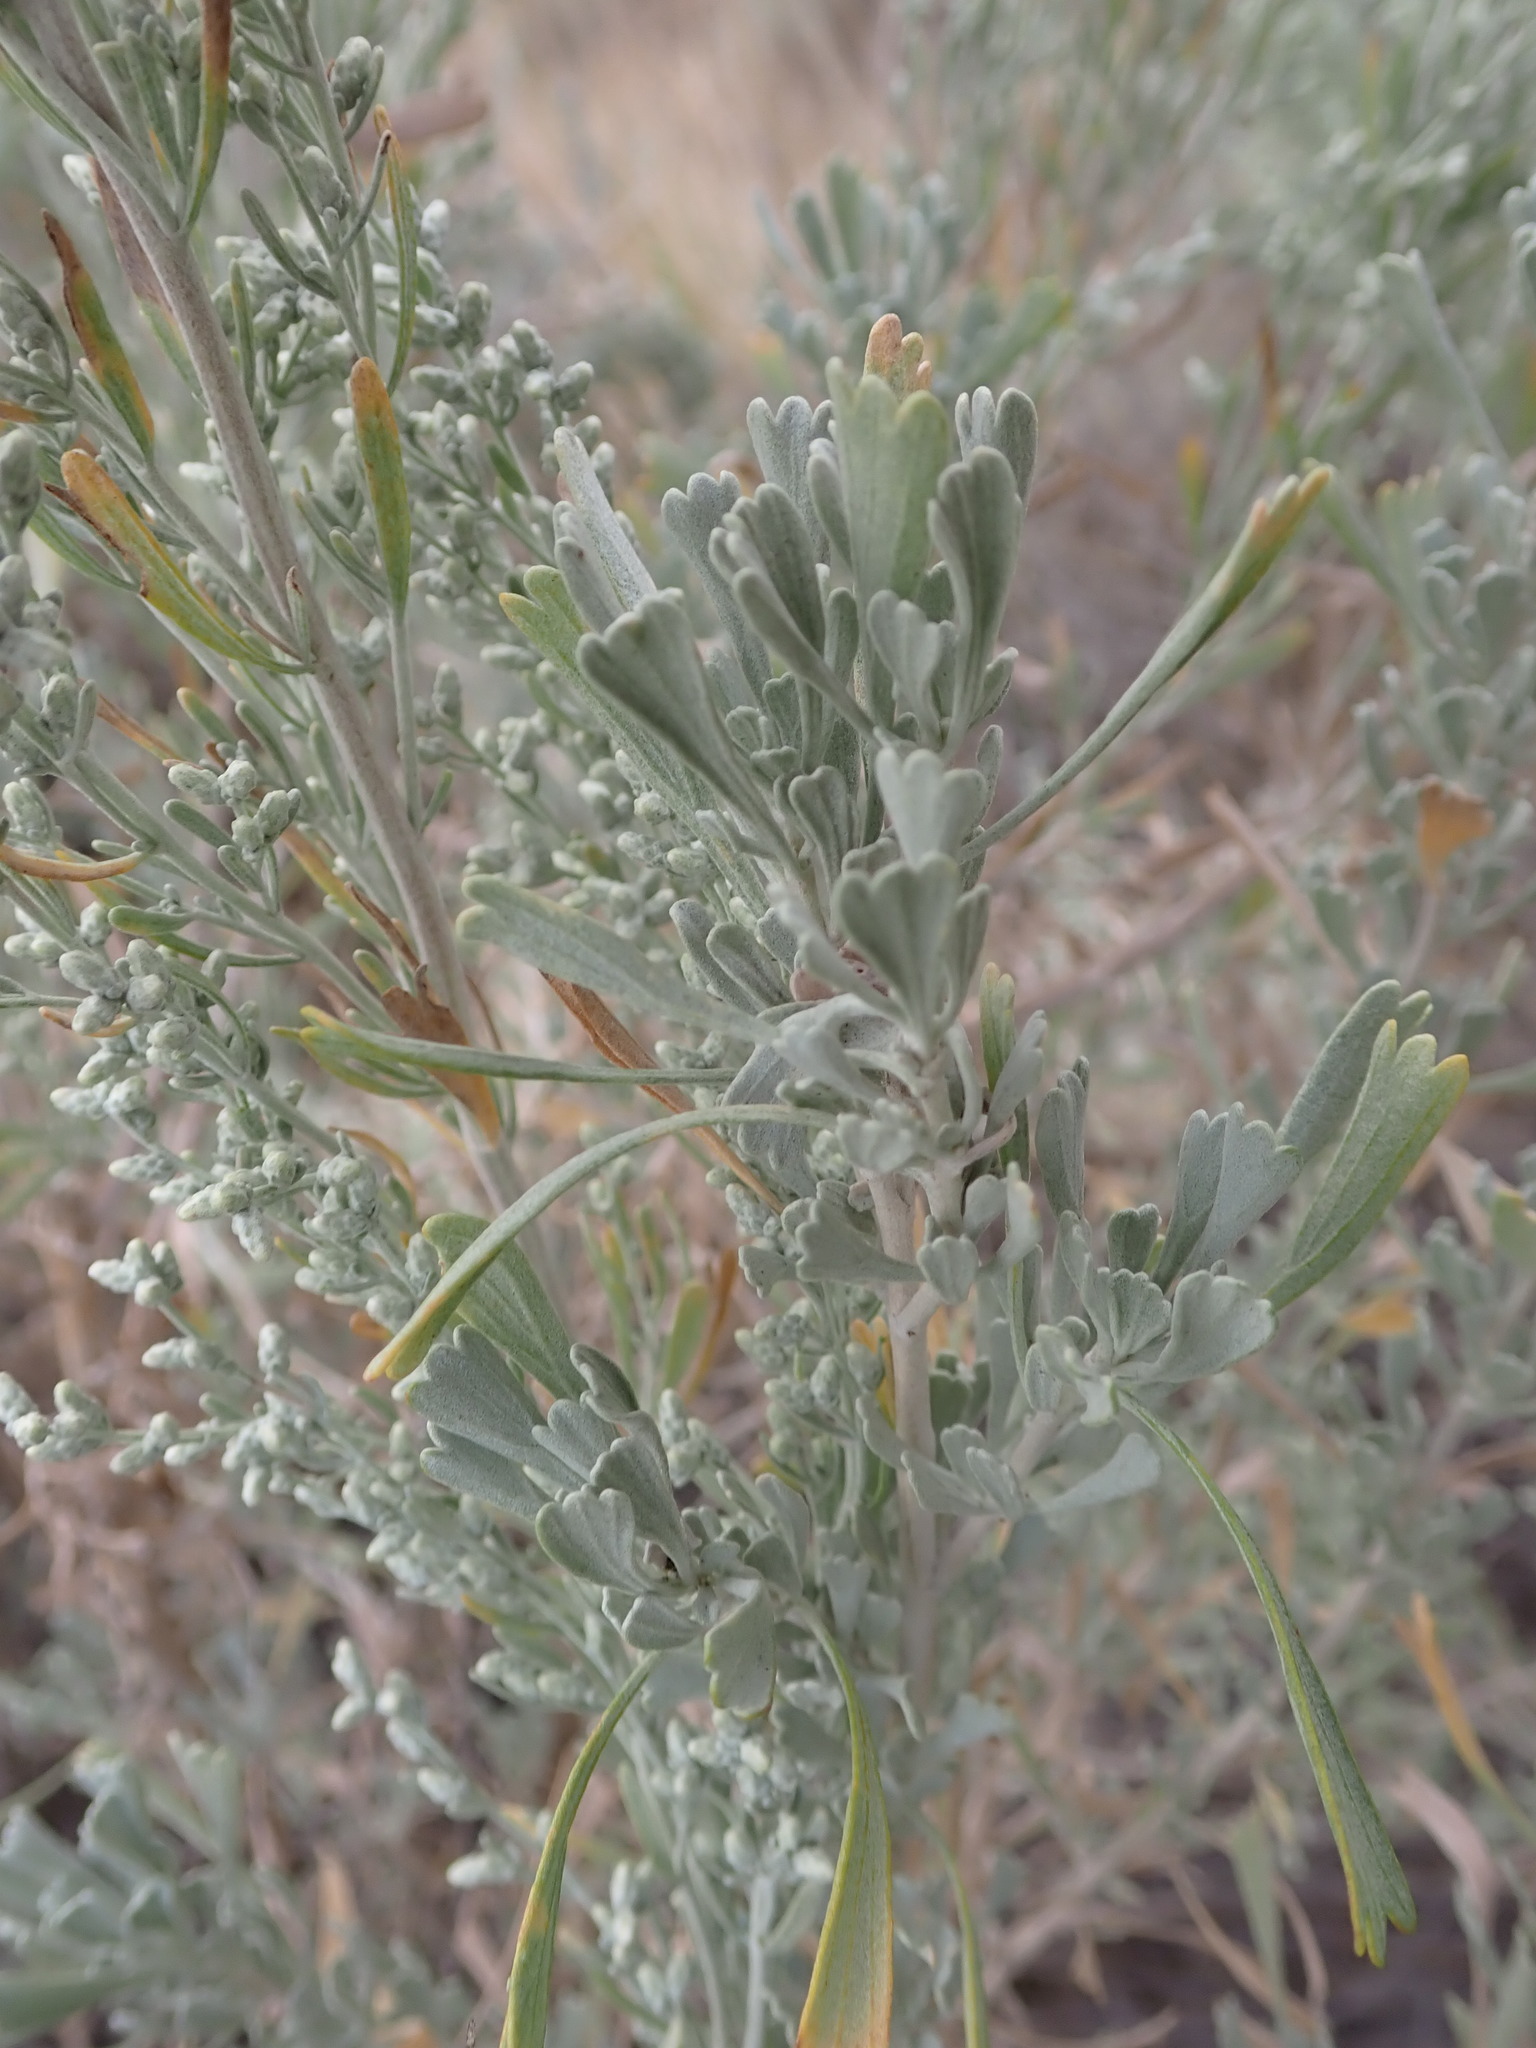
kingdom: Plantae
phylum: Tracheophyta
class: Magnoliopsida
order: Asterales
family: Asteraceae
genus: Artemisia
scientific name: Artemisia tridentata
